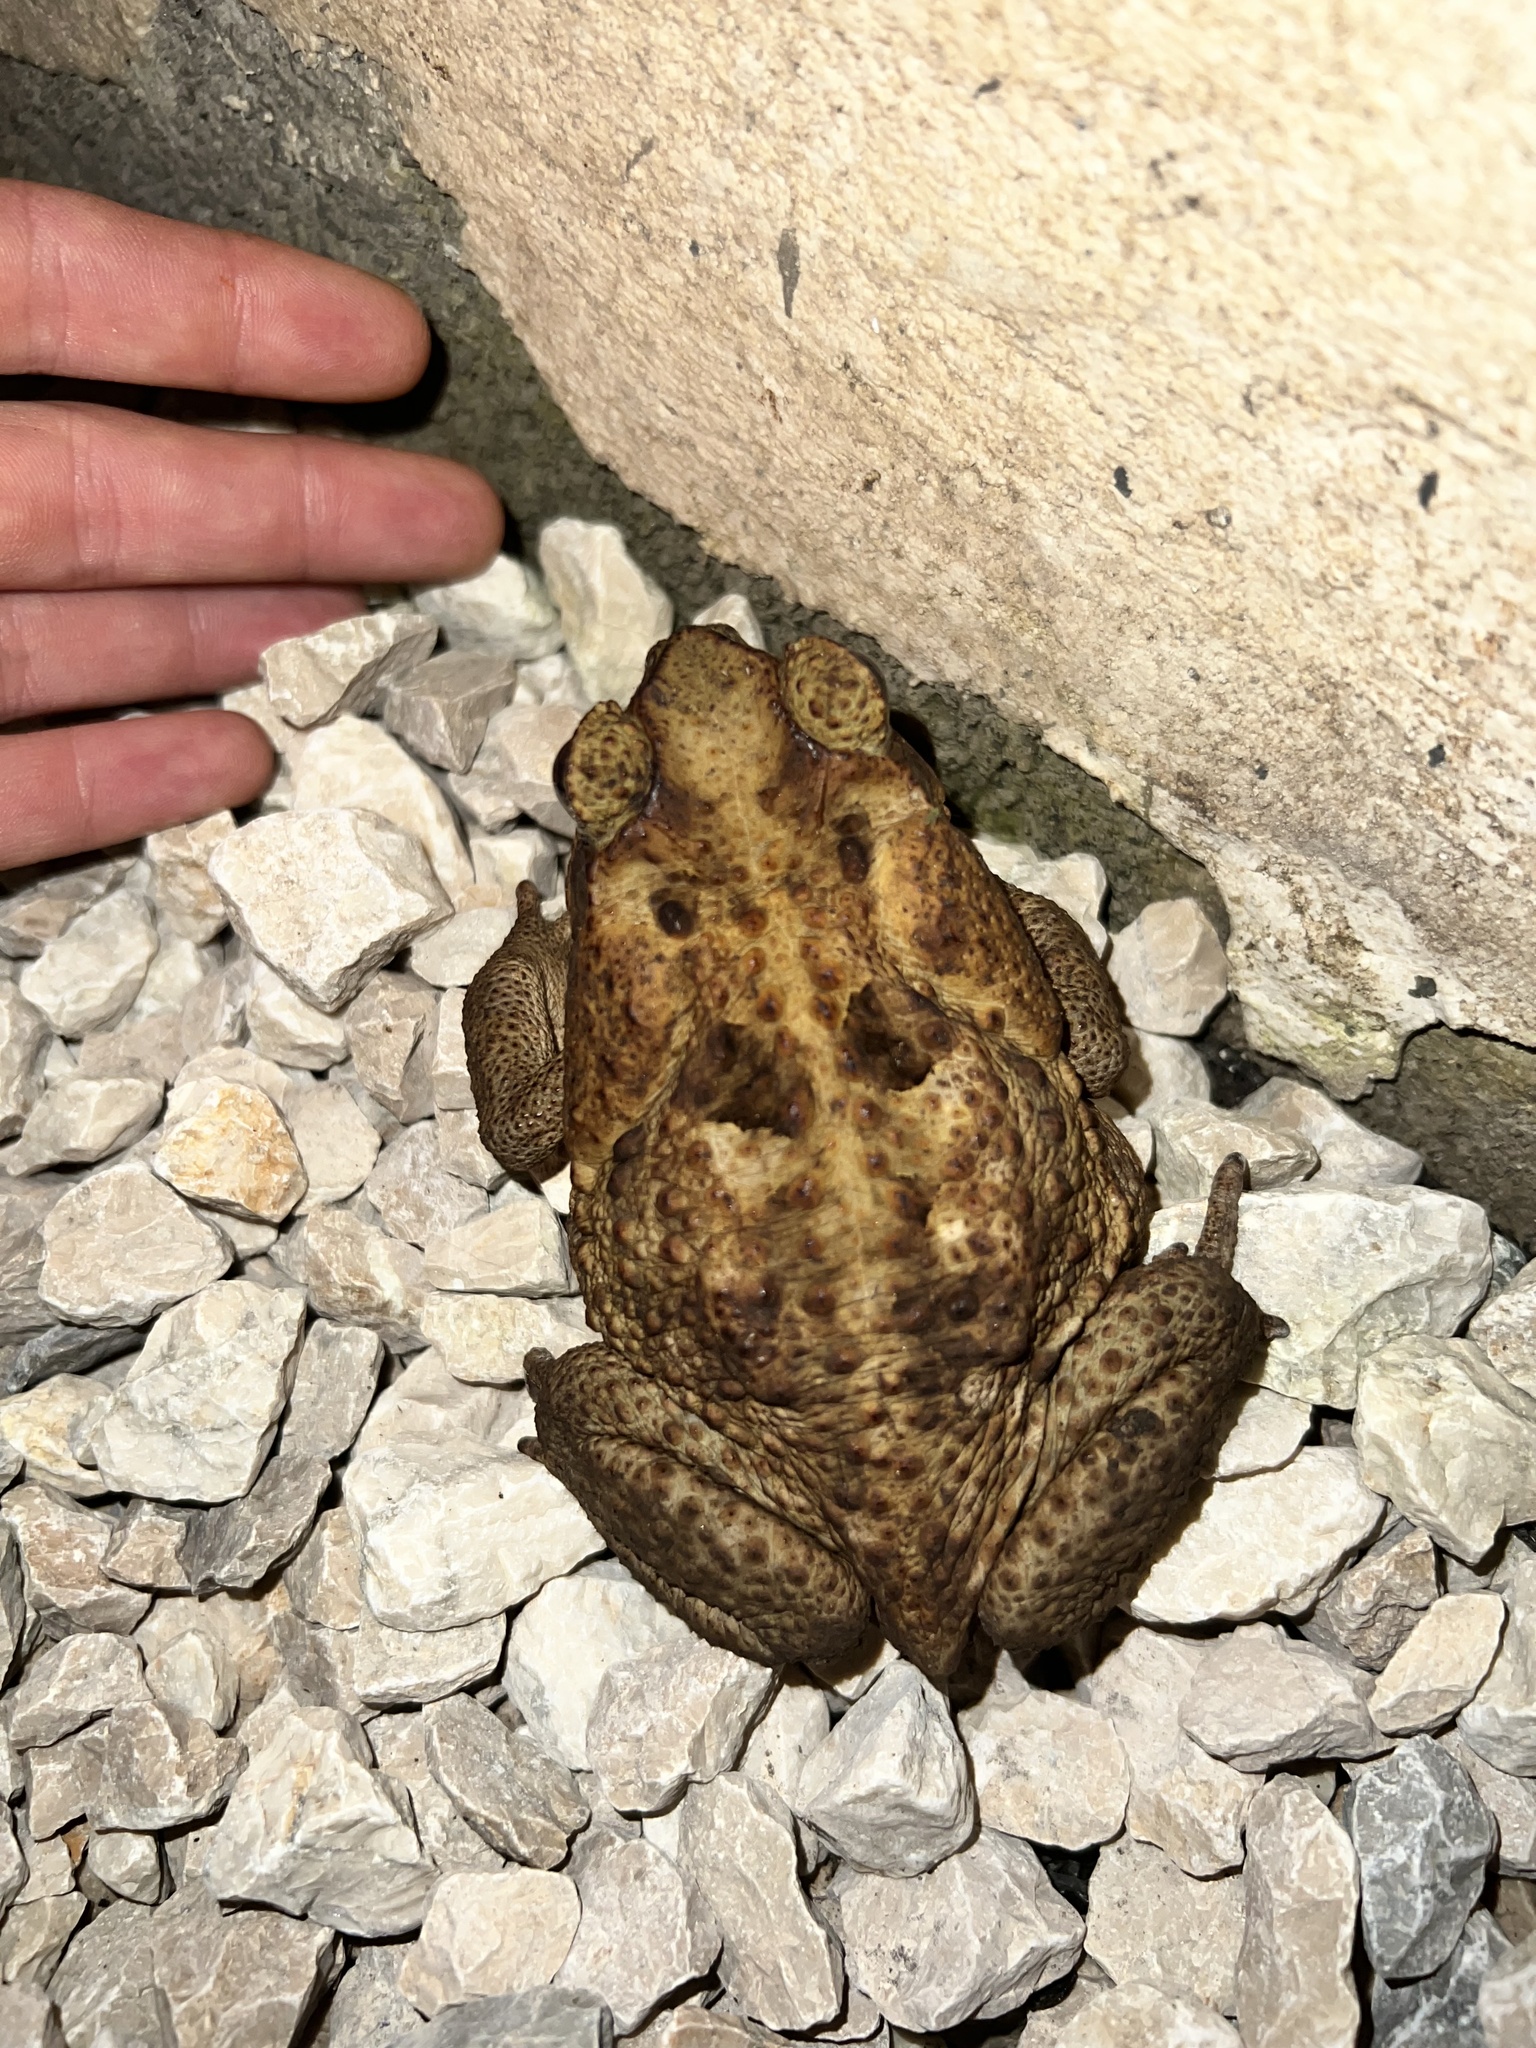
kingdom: Animalia
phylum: Chordata
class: Amphibia
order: Anura
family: Bufonidae
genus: Rhinella
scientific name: Rhinella horribilis
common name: Mesoamerican cane toad
